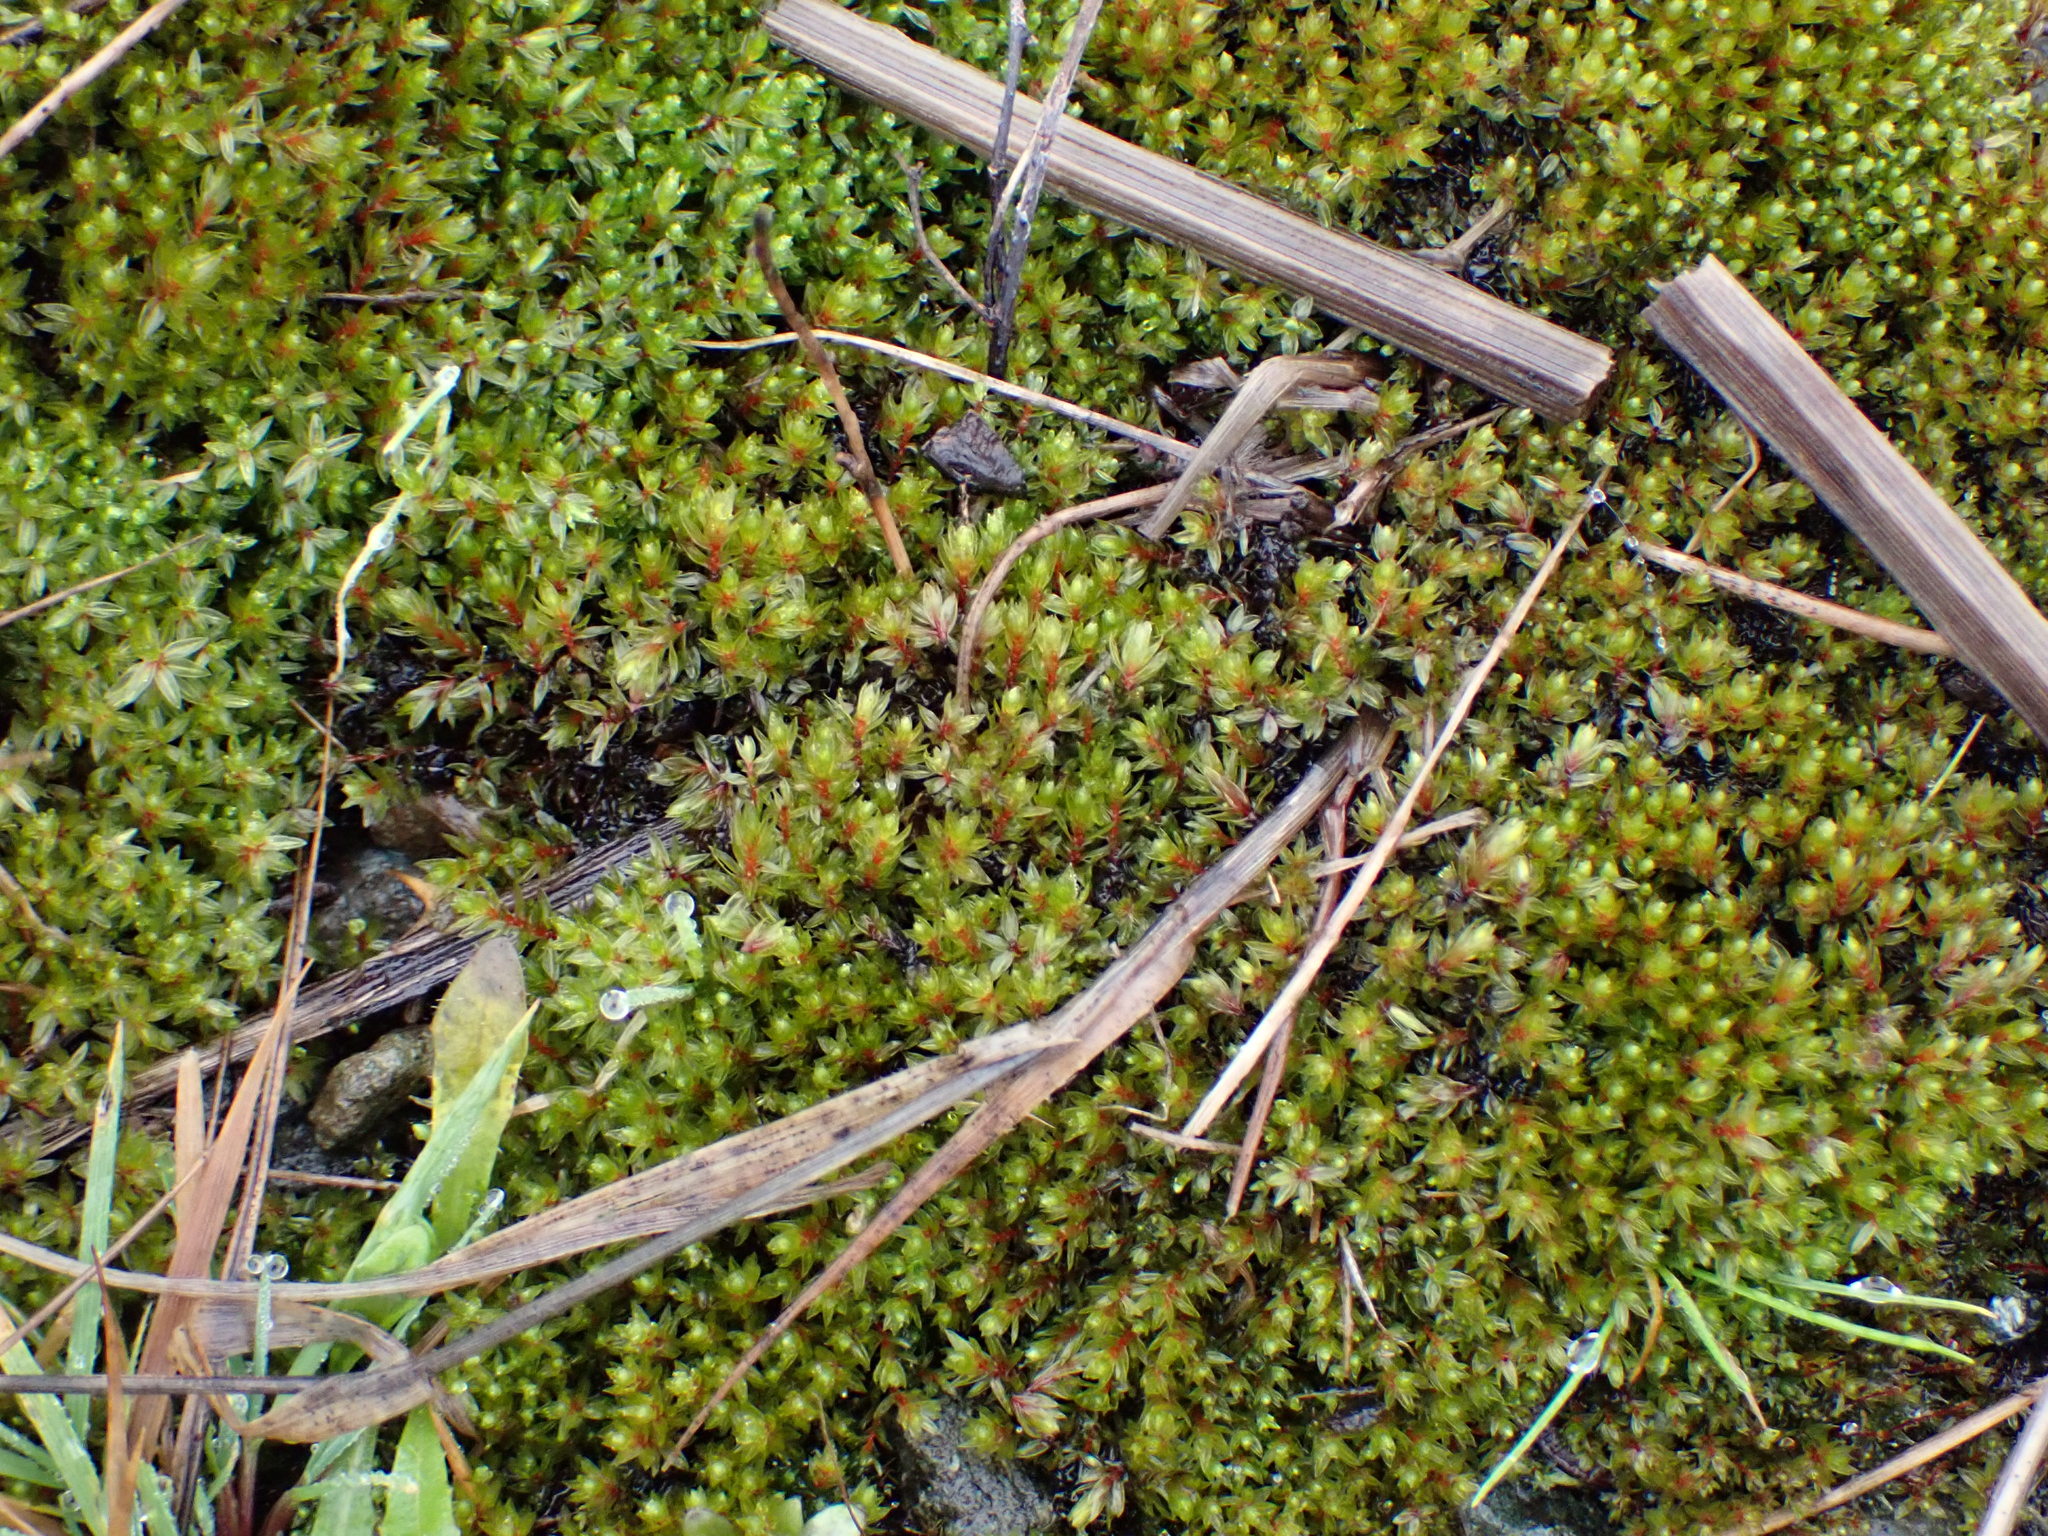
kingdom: Plantae
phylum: Bryophyta
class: Bryopsida
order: Bryales
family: Bryaceae
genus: Ptychostomum
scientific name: Ptychostomum pseudotriquetrum
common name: Long-leaved thread moss
